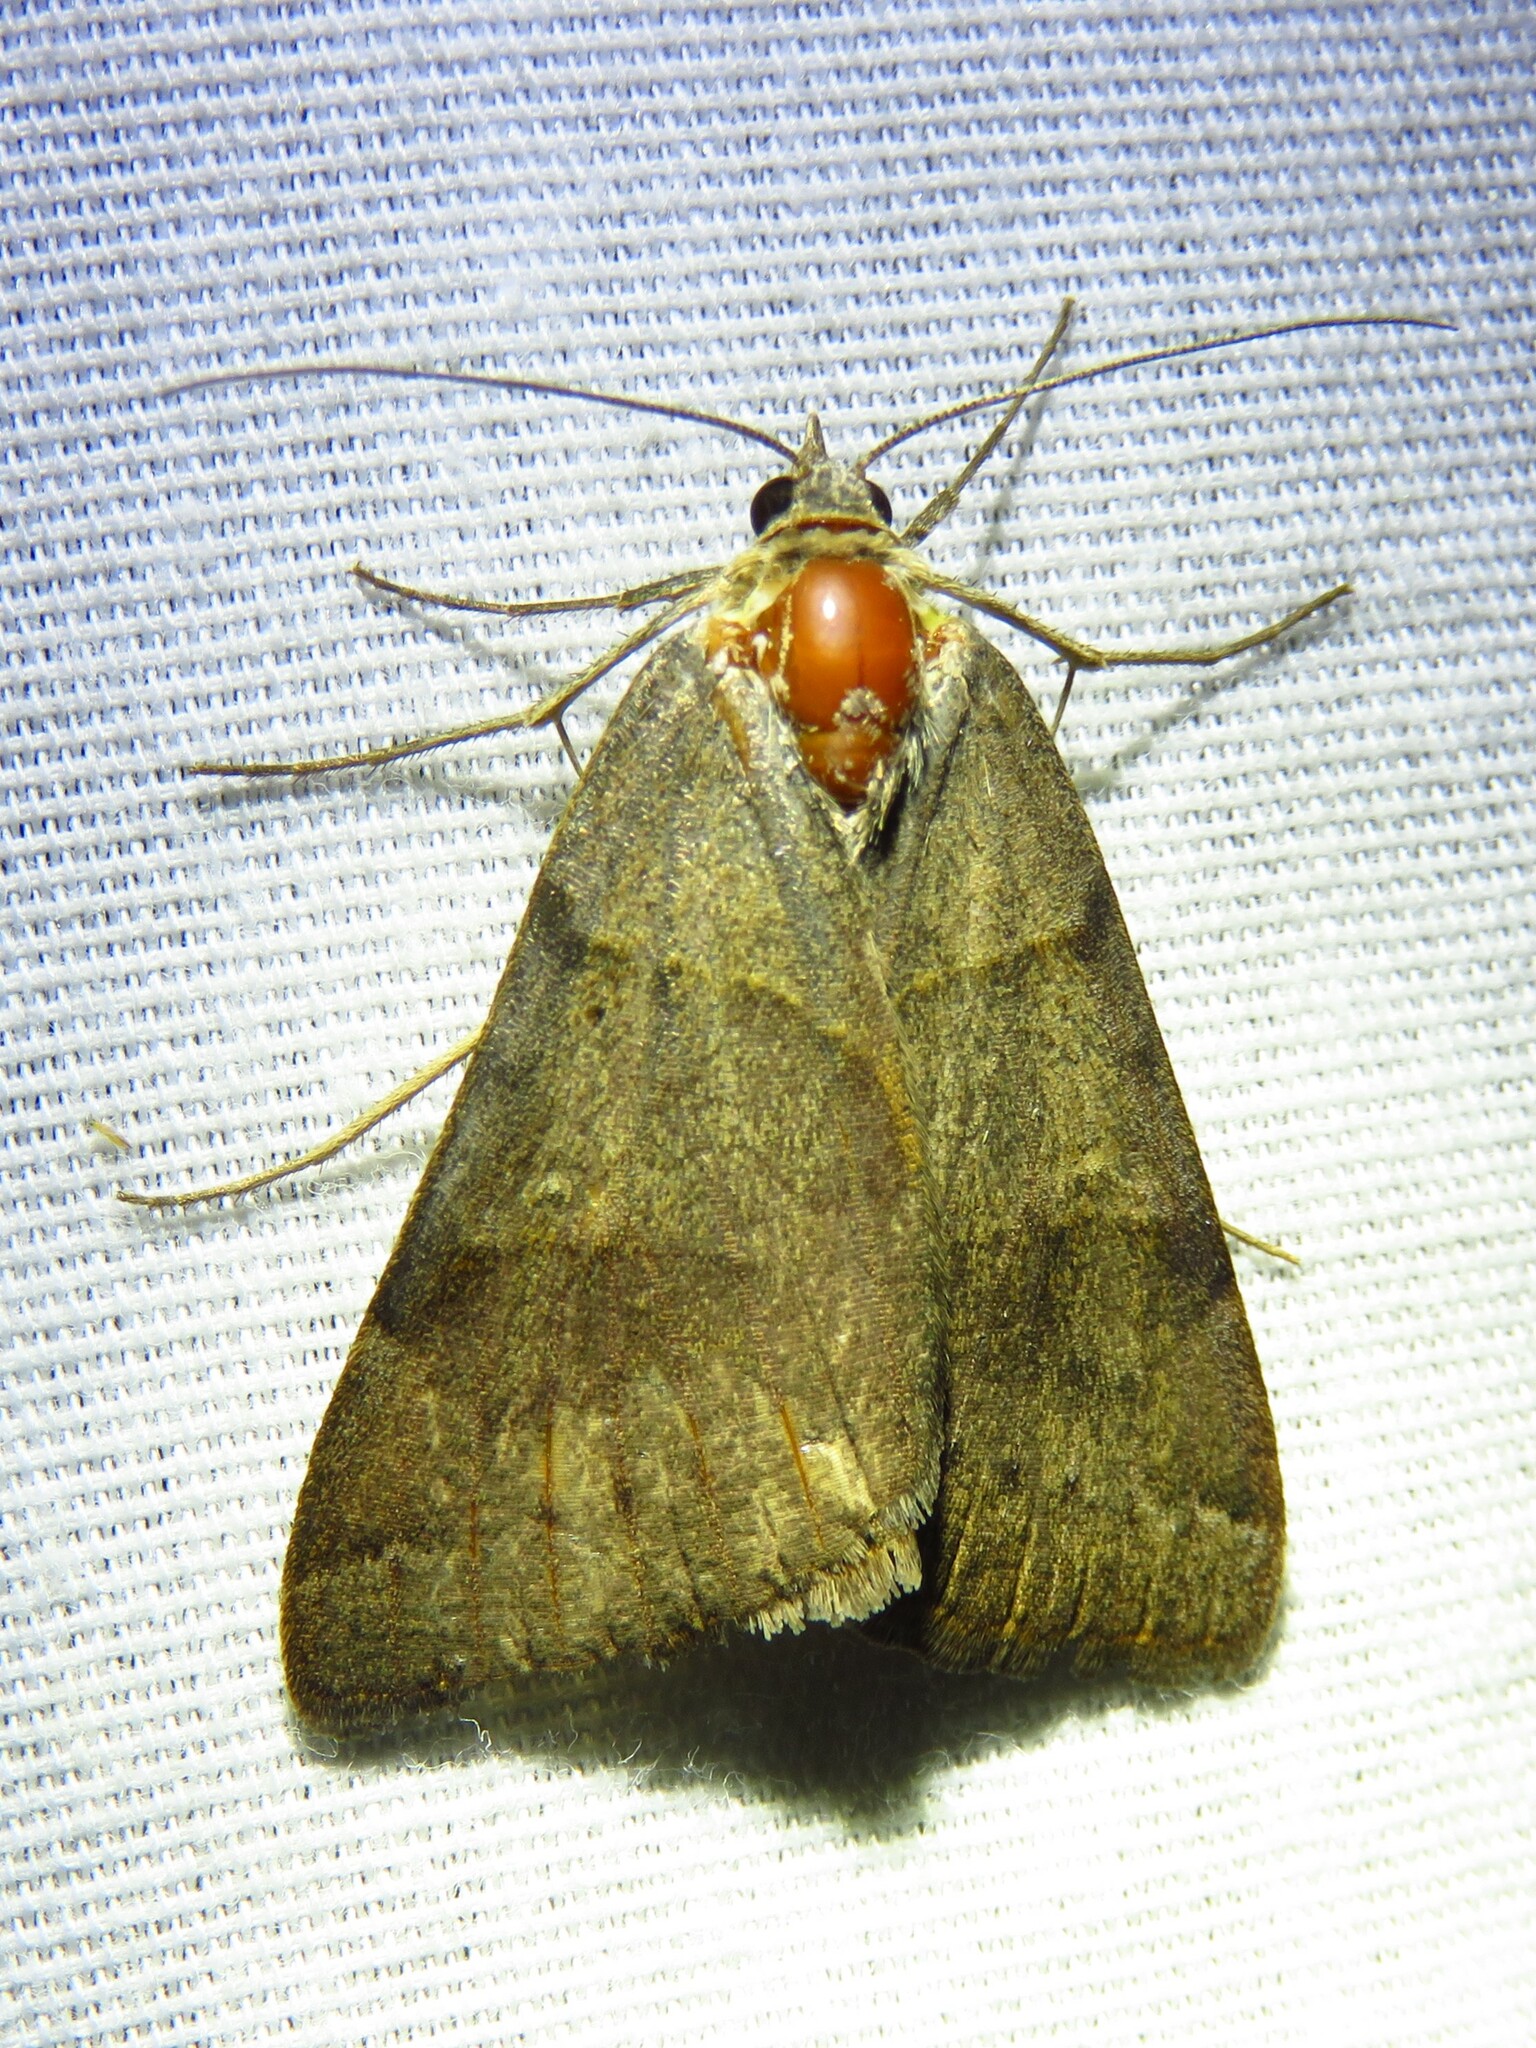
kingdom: Animalia
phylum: Arthropoda
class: Insecta
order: Lepidoptera
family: Erebidae
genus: Caenurgina
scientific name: Caenurgina erechtea
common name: Forage looper moth
